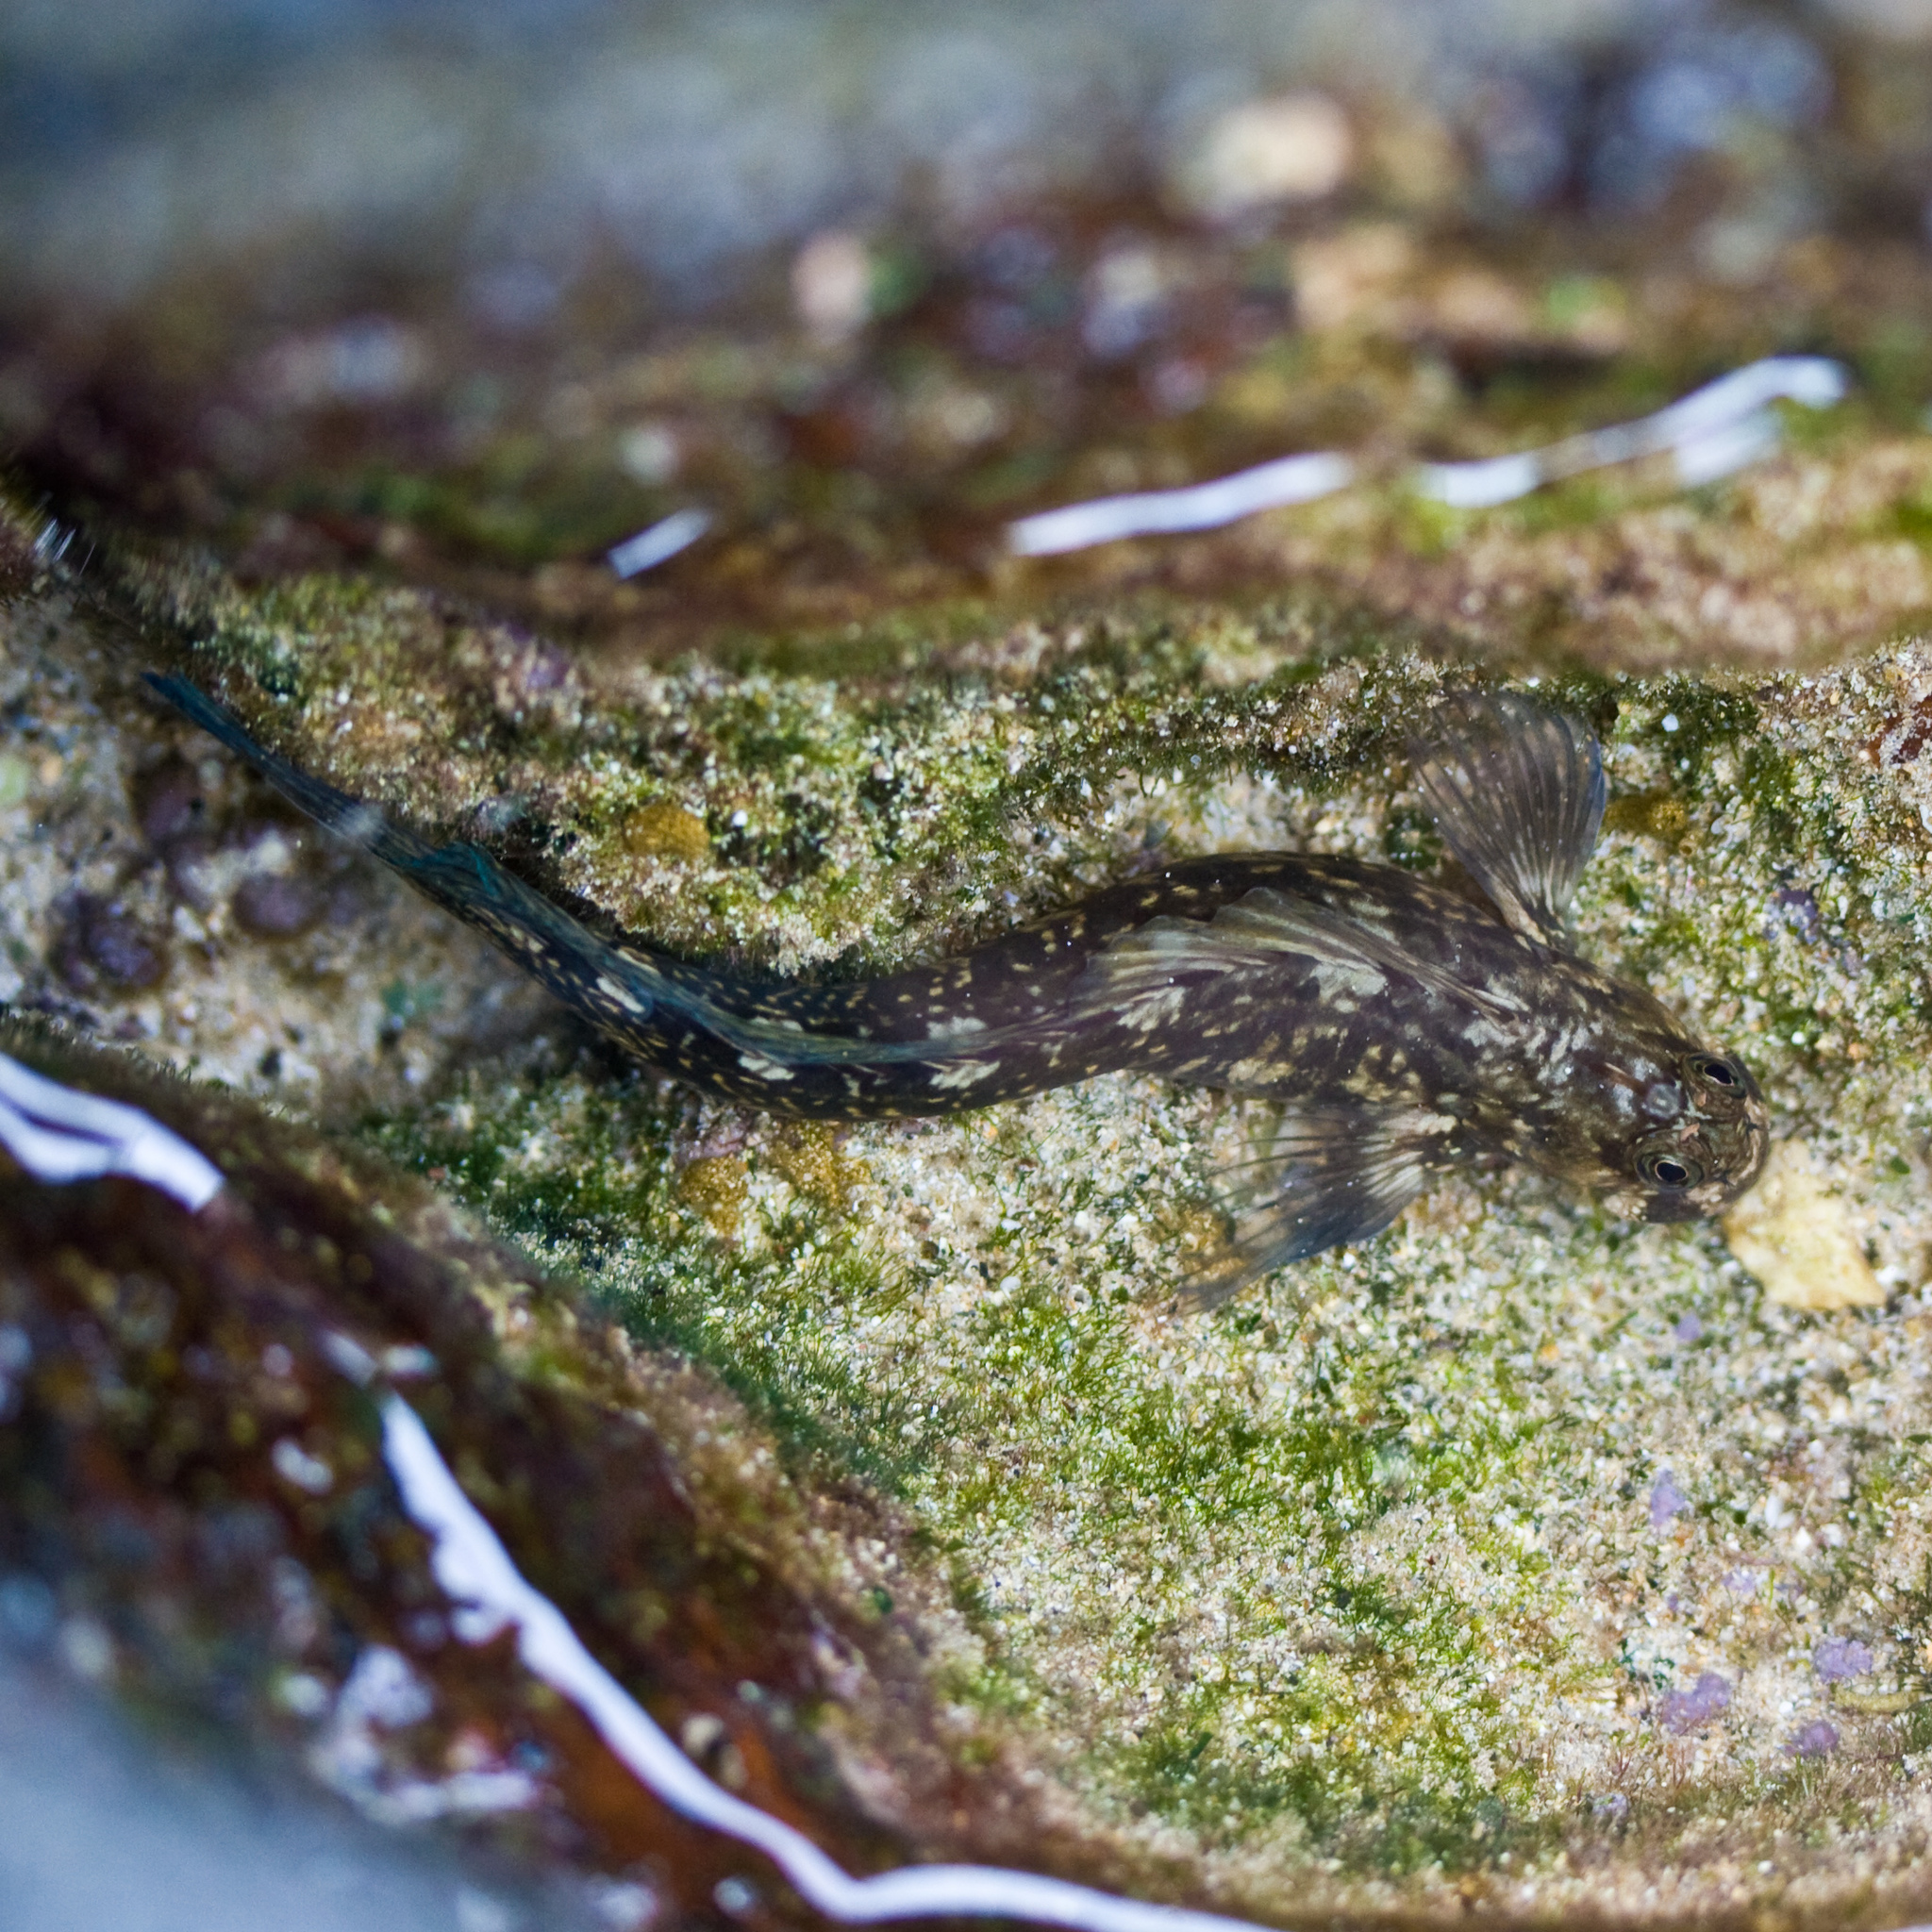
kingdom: Animalia
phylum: Chordata
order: Perciformes
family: Blenniidae
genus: Istiblennius
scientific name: Istiblennius zebra
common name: Zebra blenny
